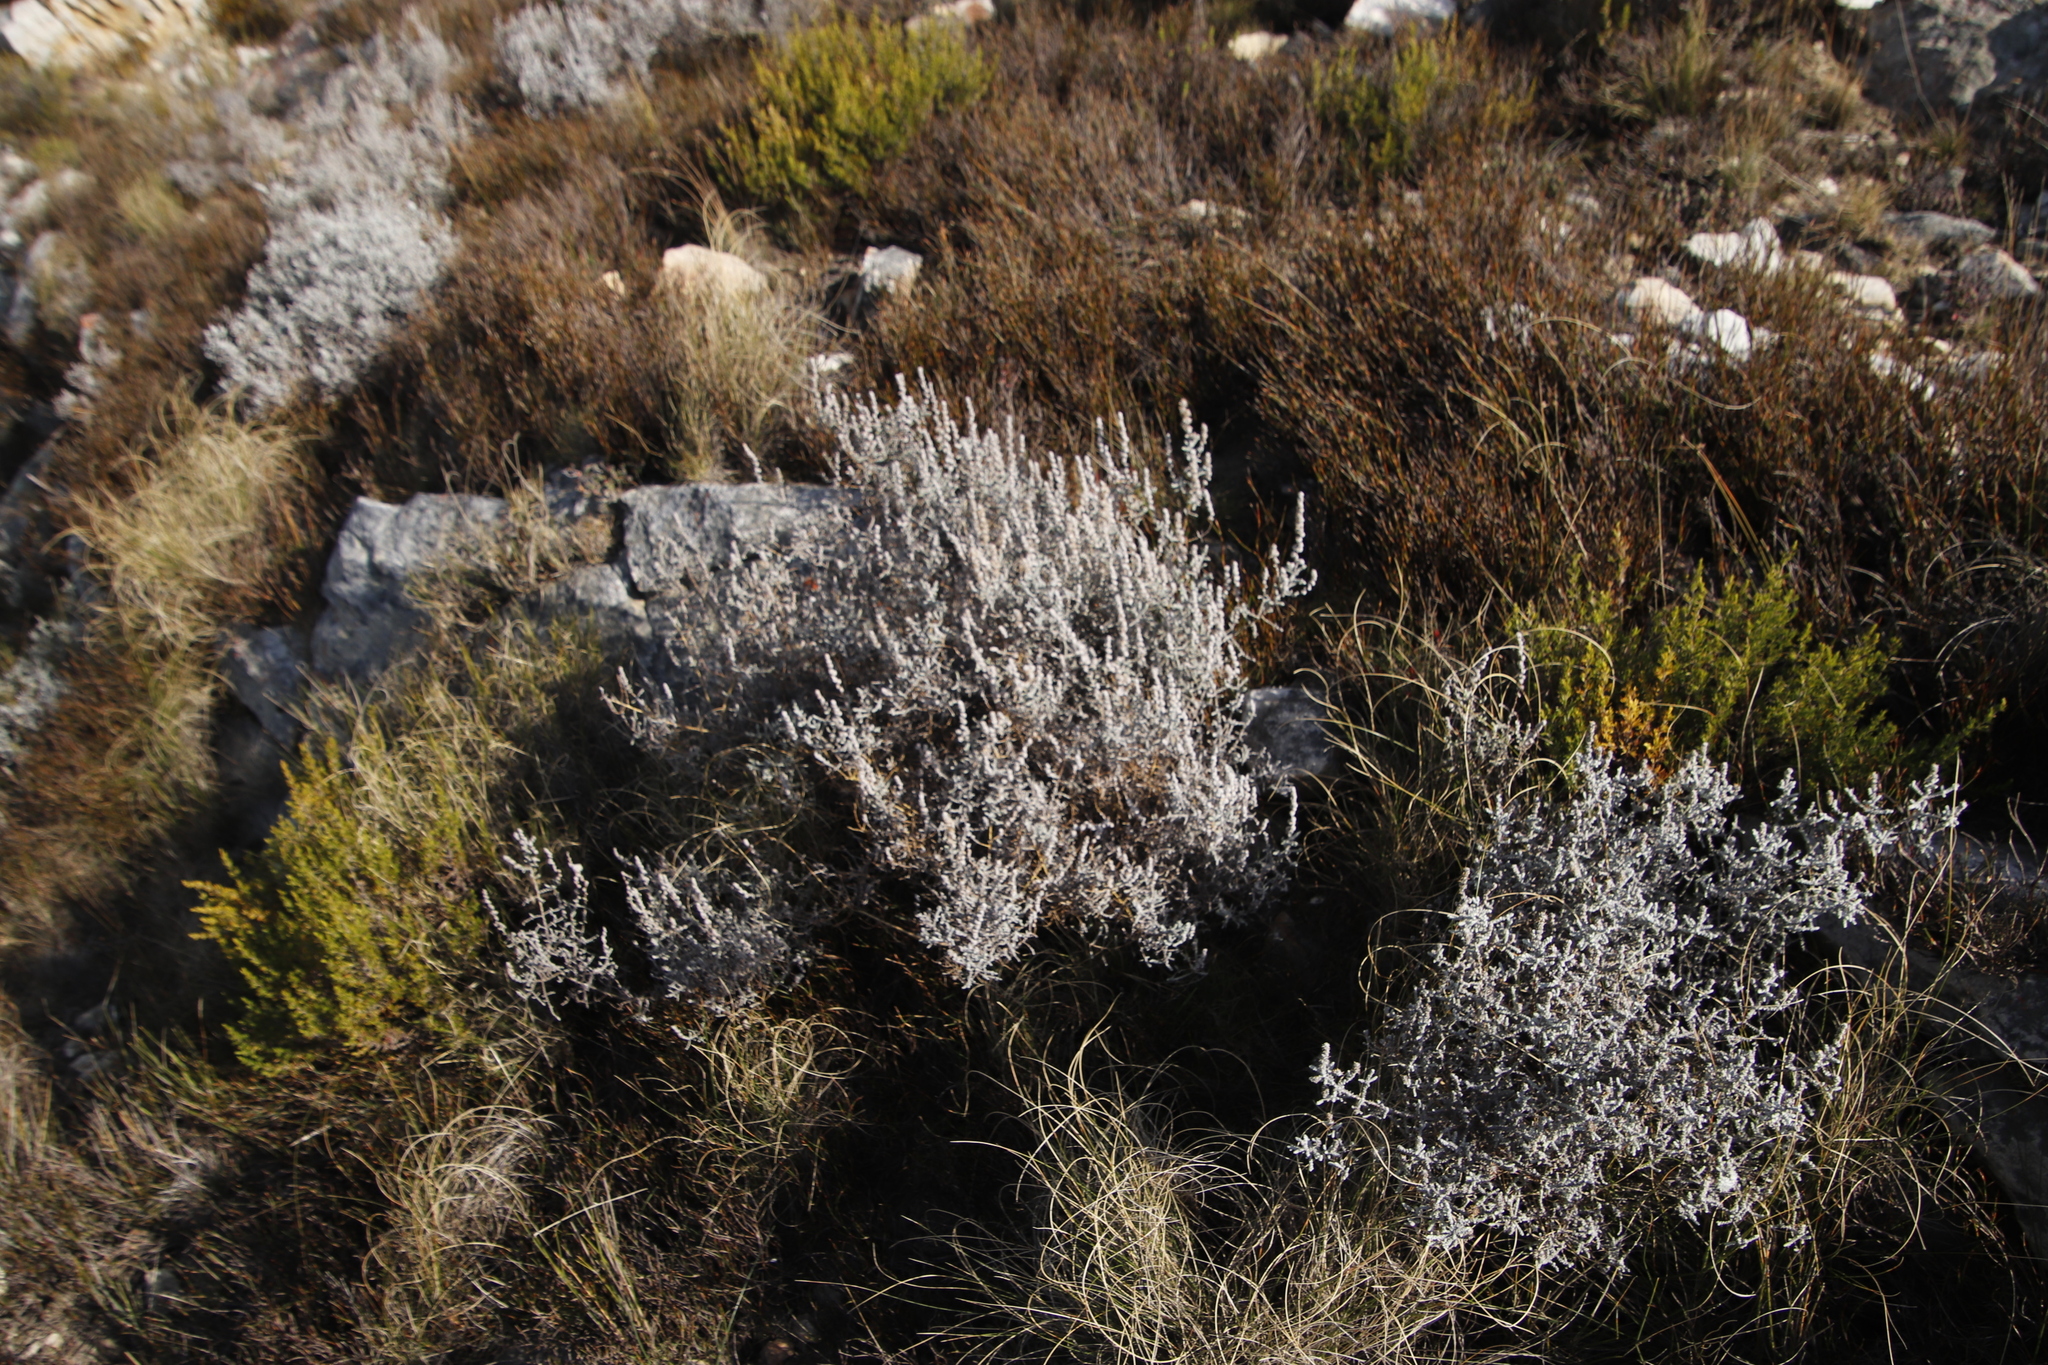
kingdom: Plantae
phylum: Tracheophyta
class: Magnoliopsida
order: Asterales
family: Asteraceae
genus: Seriphium
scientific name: Seriphium plumosum
